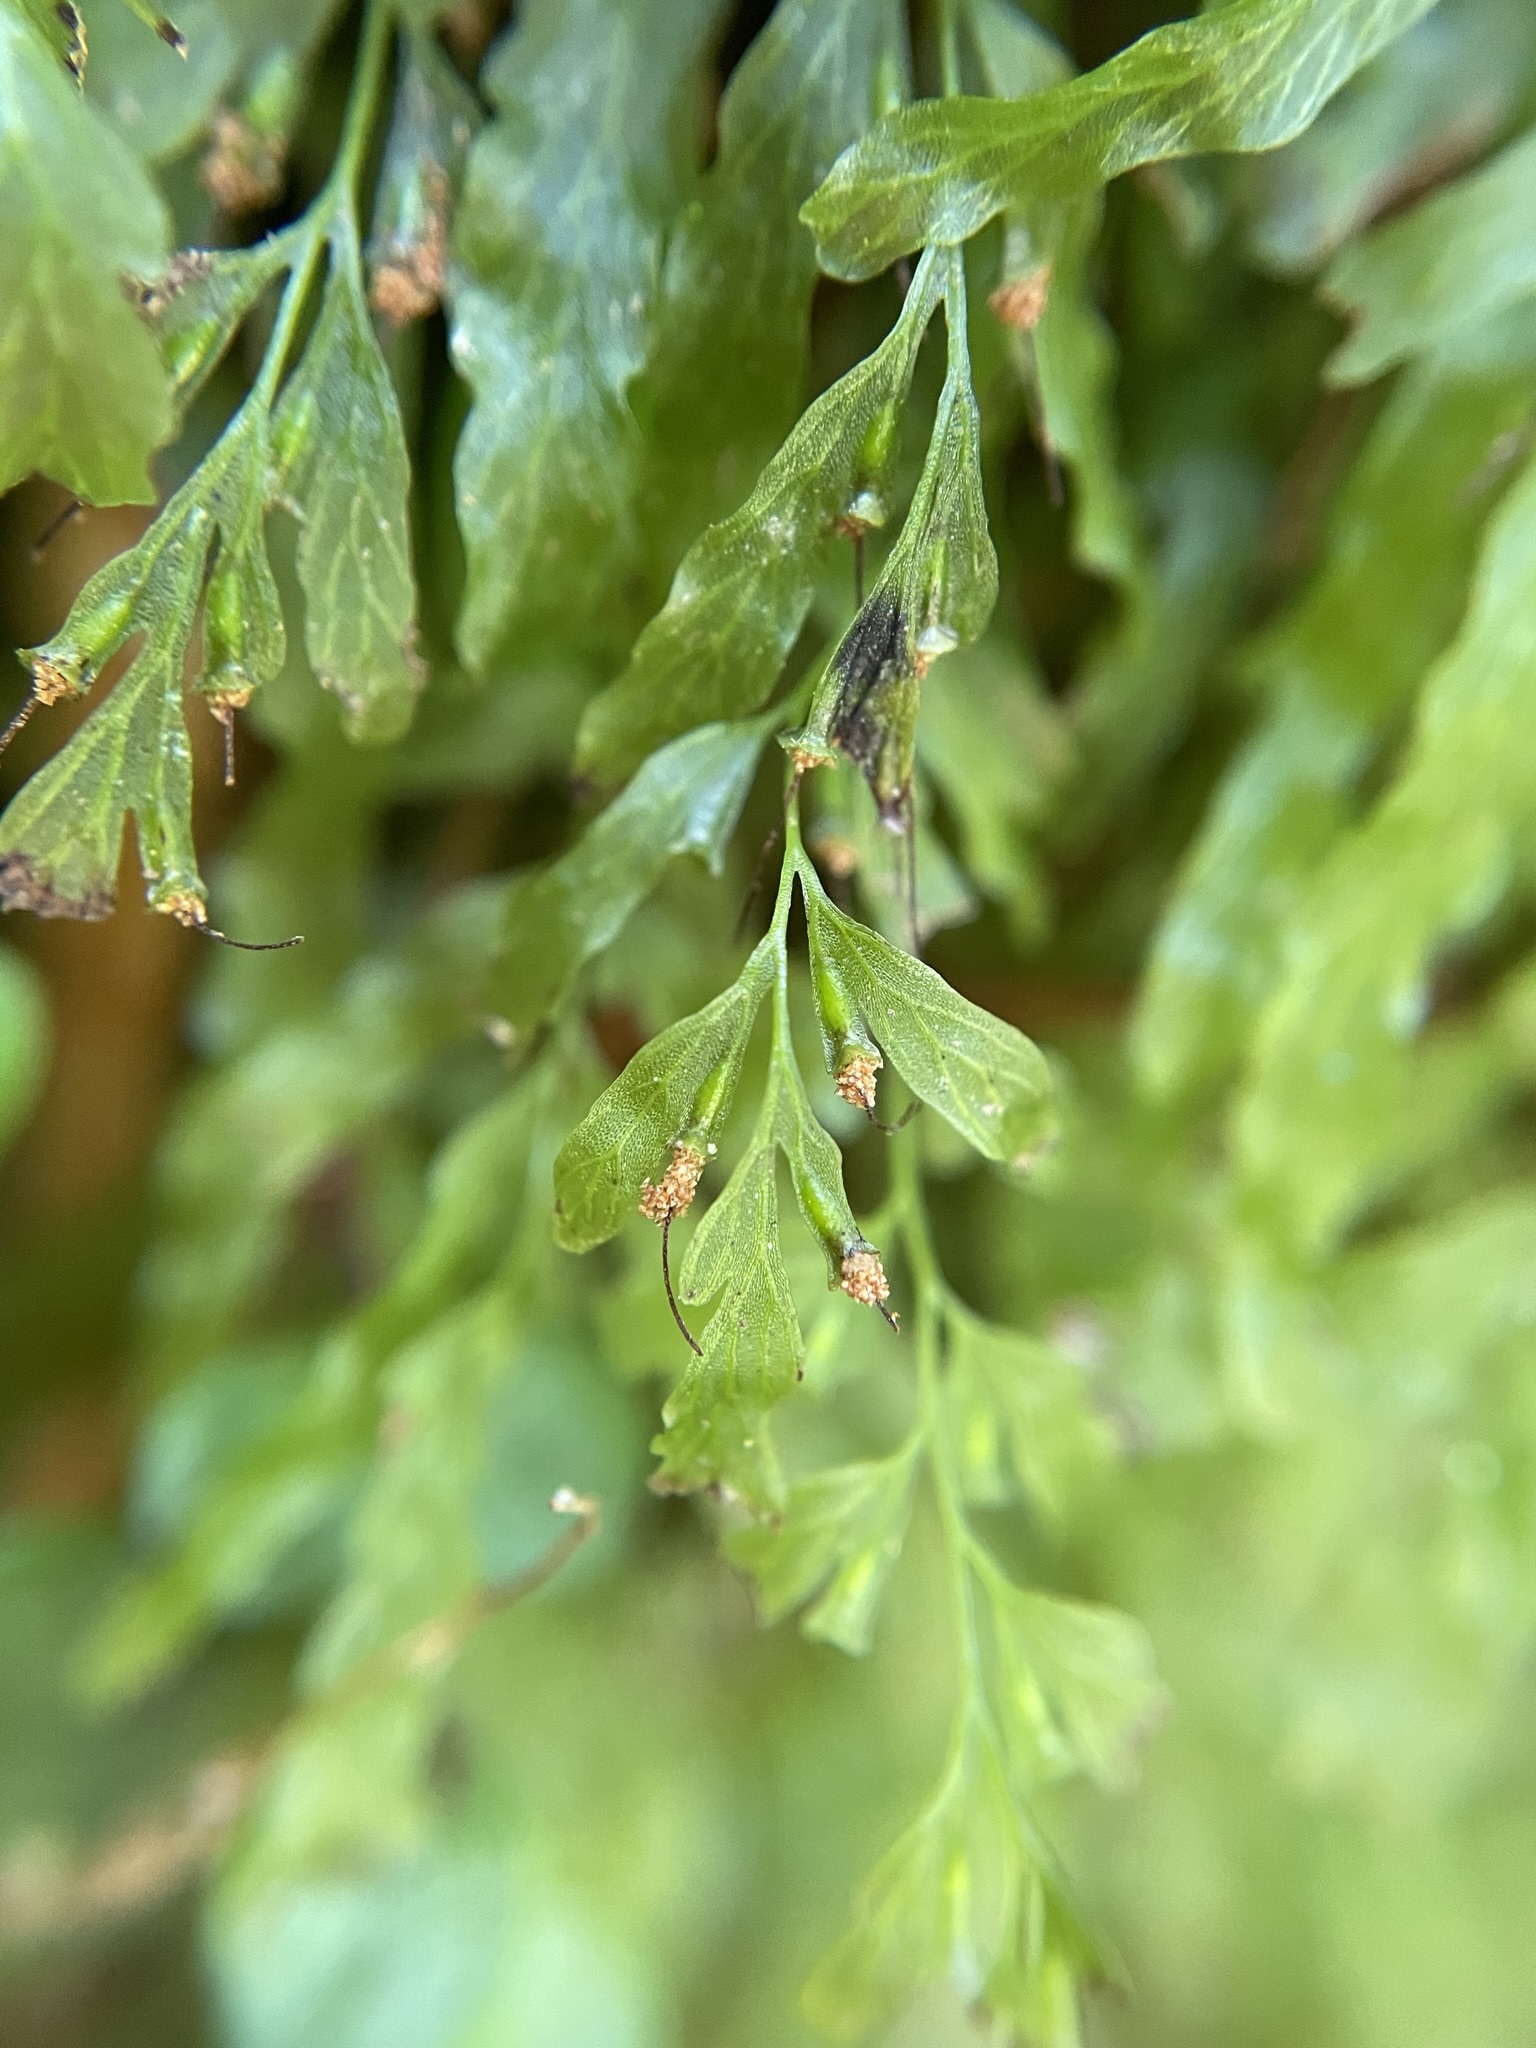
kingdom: Plantae
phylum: Tracheophyta
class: Polypodiopsida
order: Hymenophyllales
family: Hymenophyllaceae
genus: Polyphlebium
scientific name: Polyphlebium venosum
